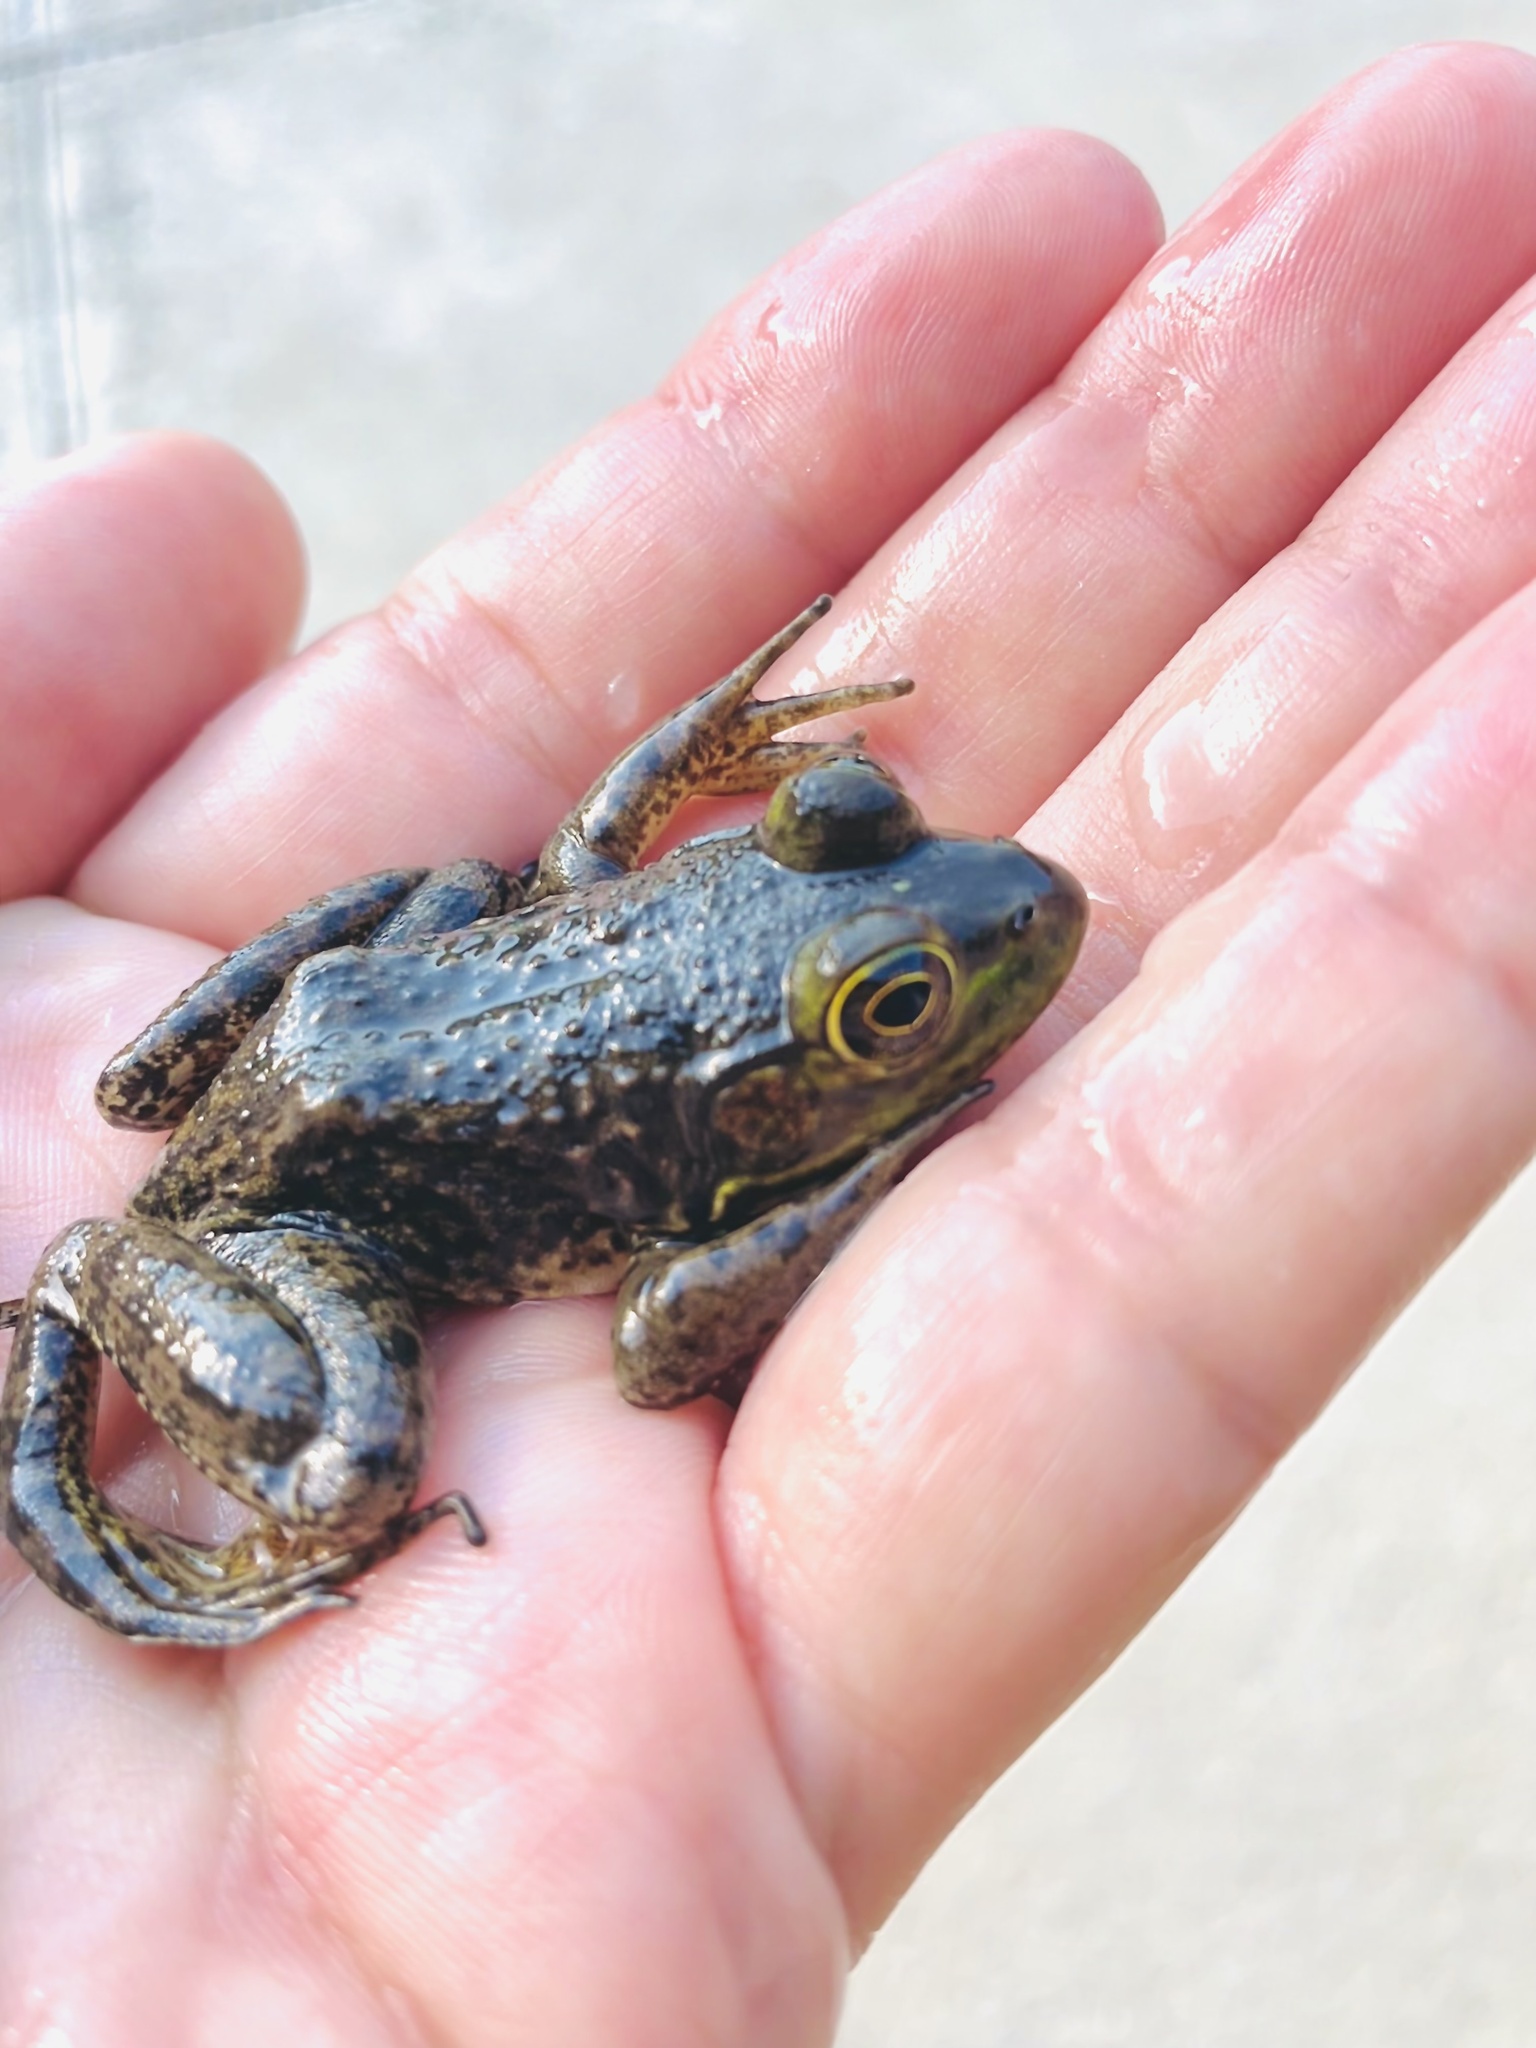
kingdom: Animalia
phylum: Chordata
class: Amphibia
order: Anura
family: Ranidae
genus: Lithobates
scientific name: Lithobates catesbeianus
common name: American bullfrog
